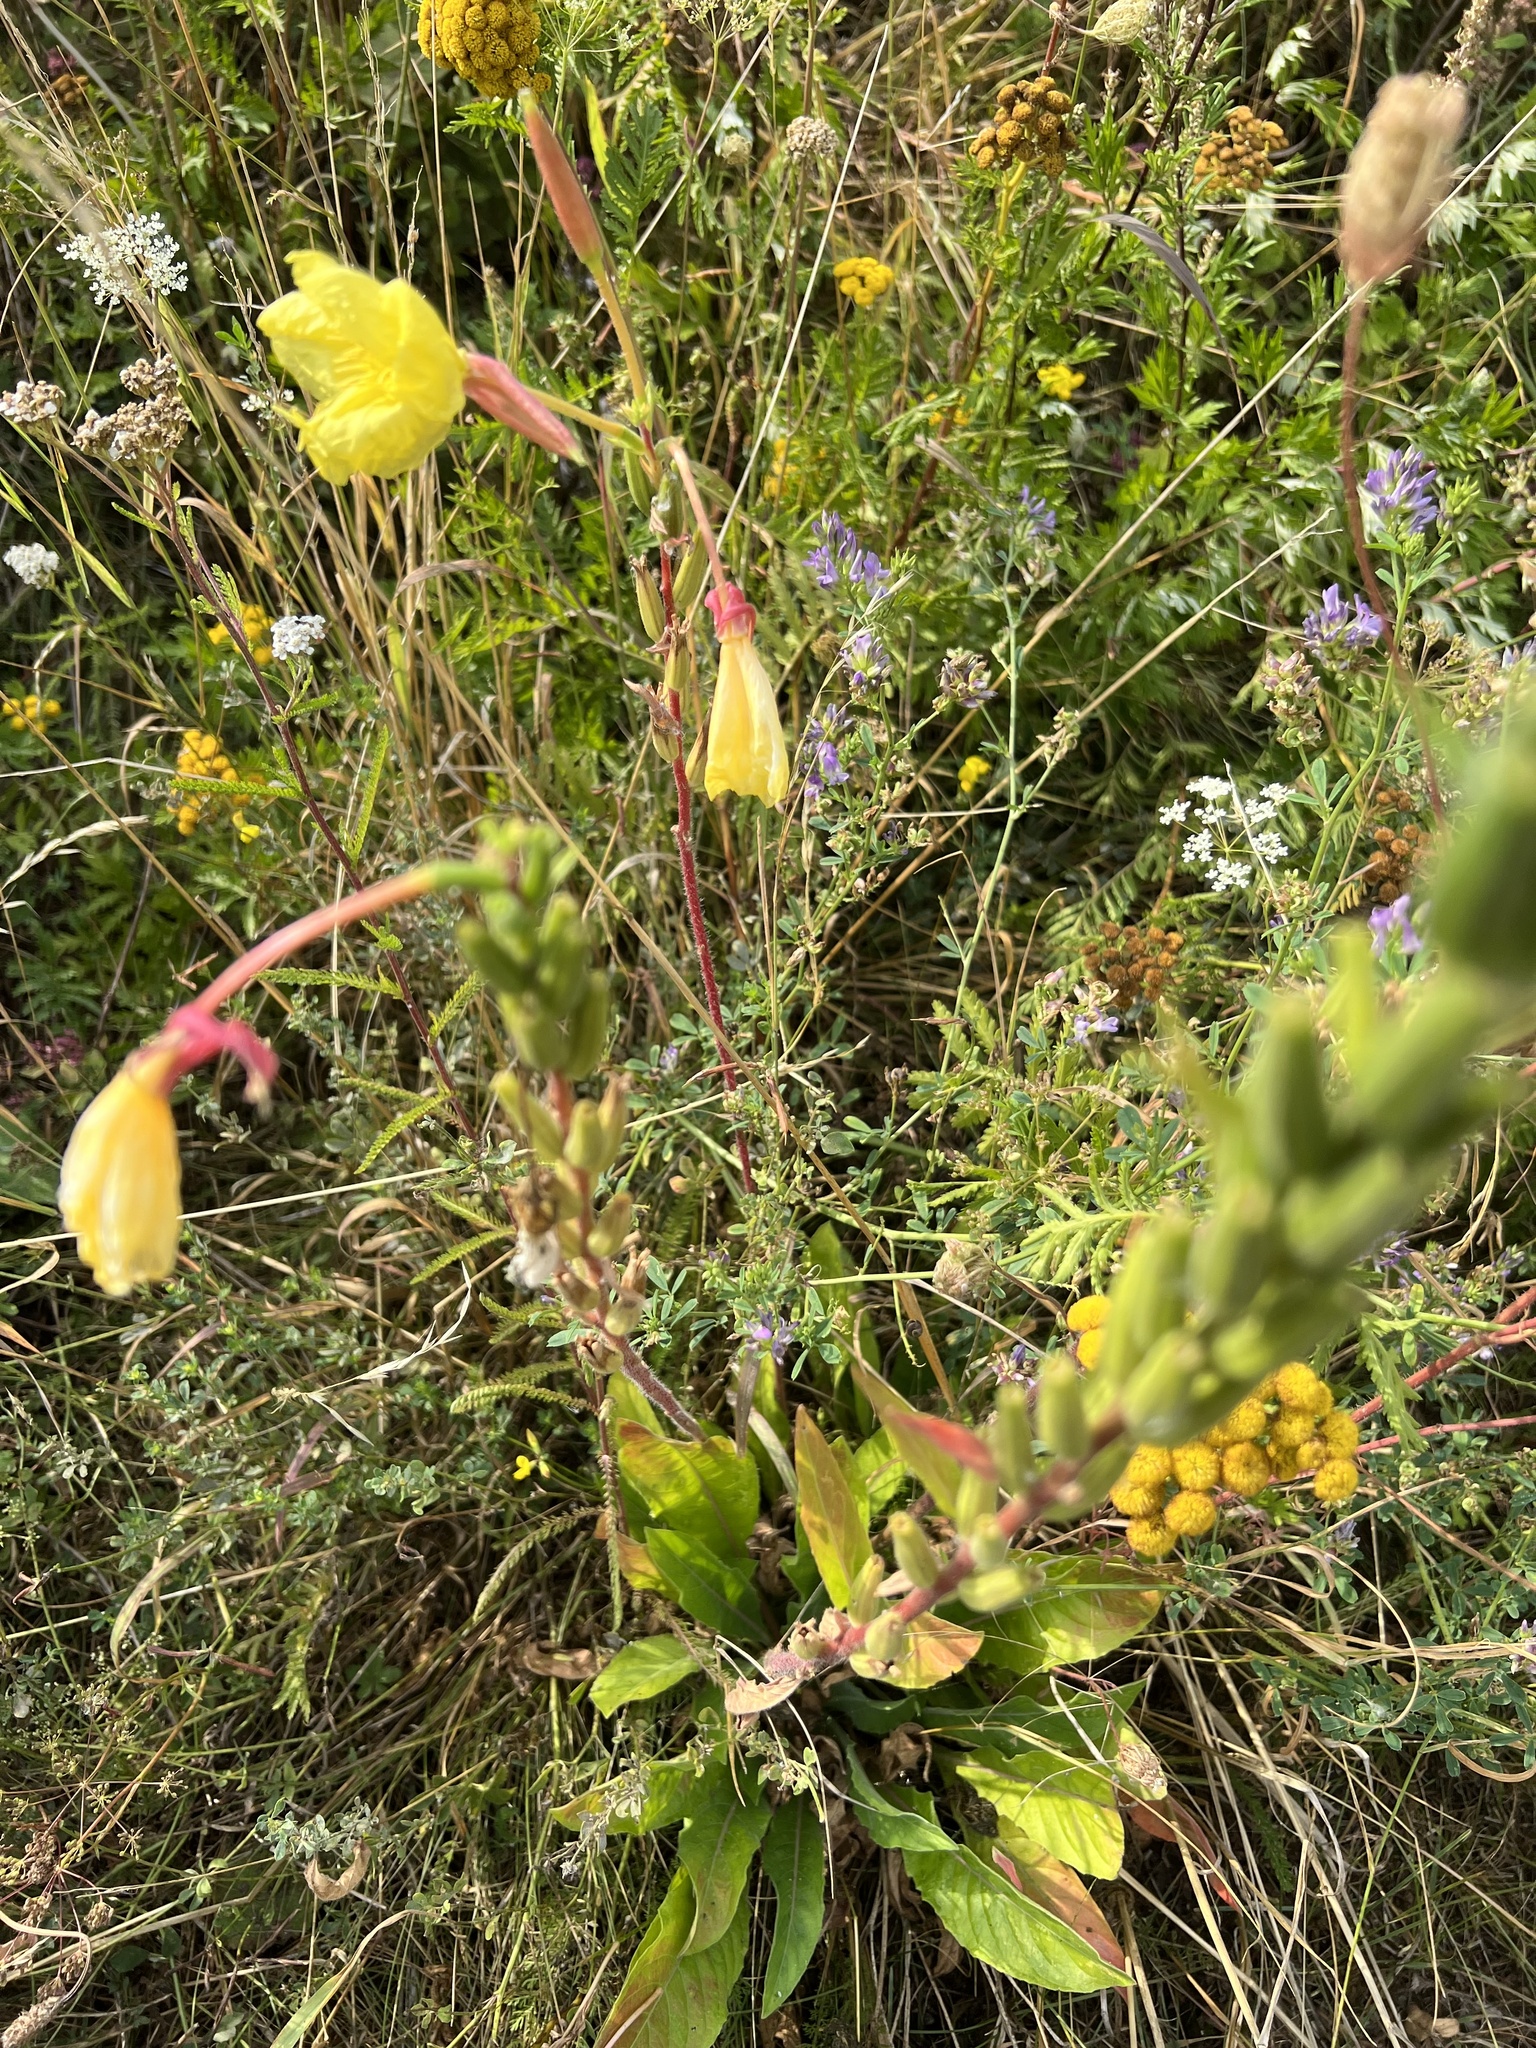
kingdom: Plantae
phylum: Tracheophyta
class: Magnoliopsida
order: Myrtales
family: Onagraceae
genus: Oenothera
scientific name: Oenothera glazioviana
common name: Large-flowered evening-primrose
